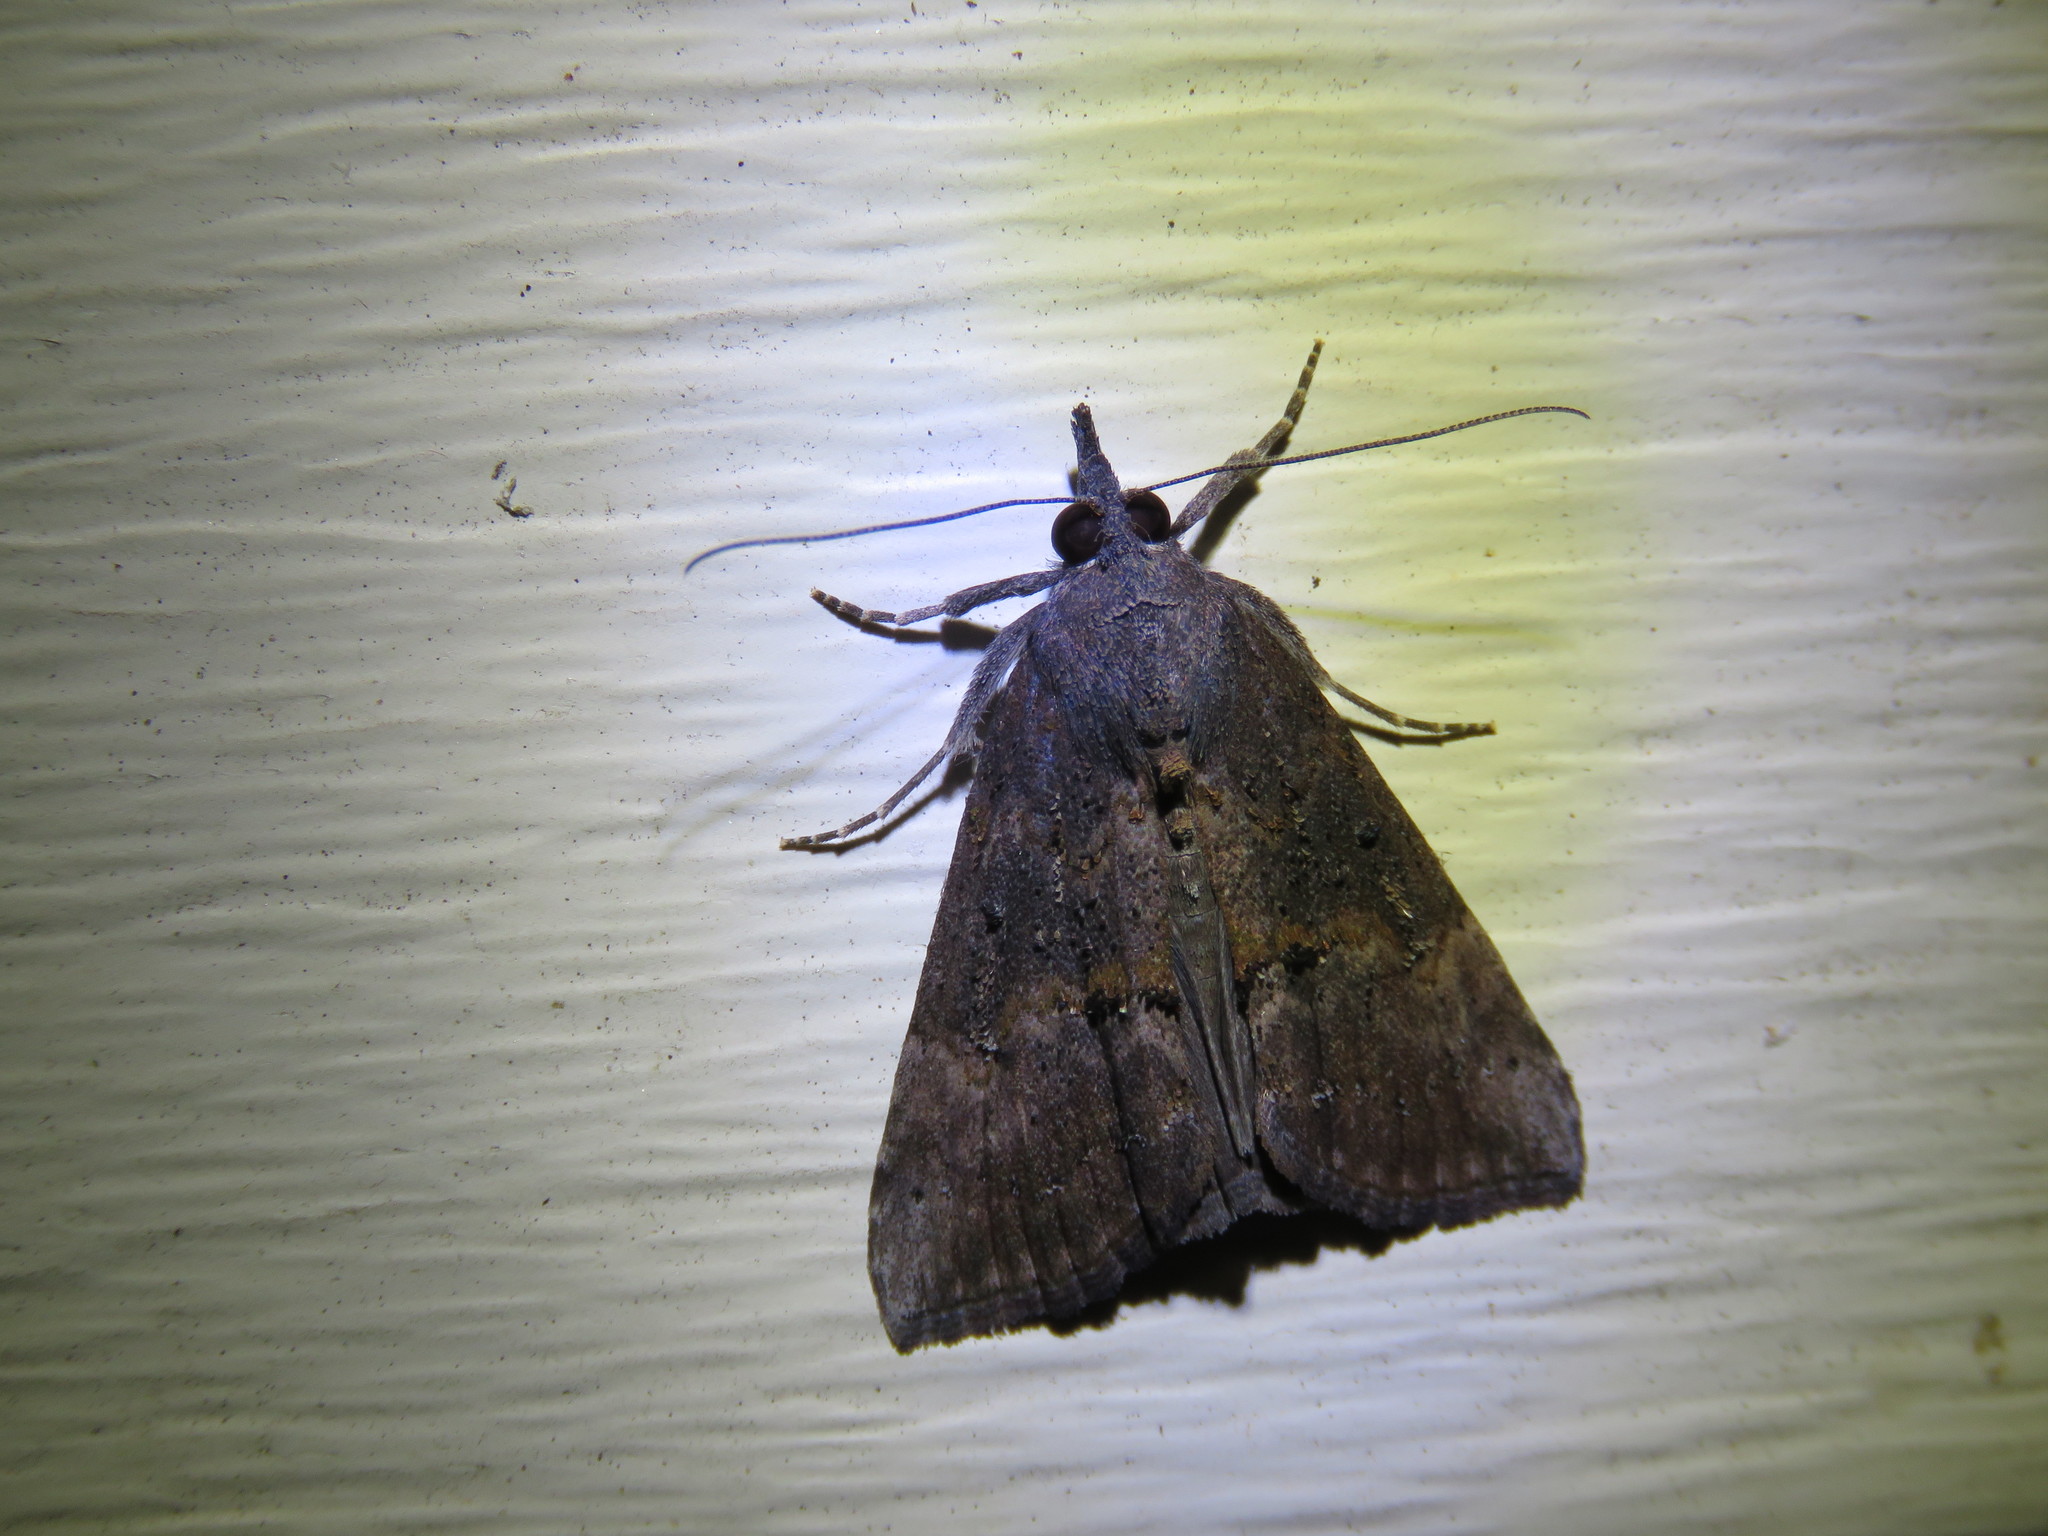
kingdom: Animalia
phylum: Arthropoda
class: Insecta
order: Lepidoptera
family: Erebidae
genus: Hypena
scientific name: Hypena scabra
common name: Green cloverworm
